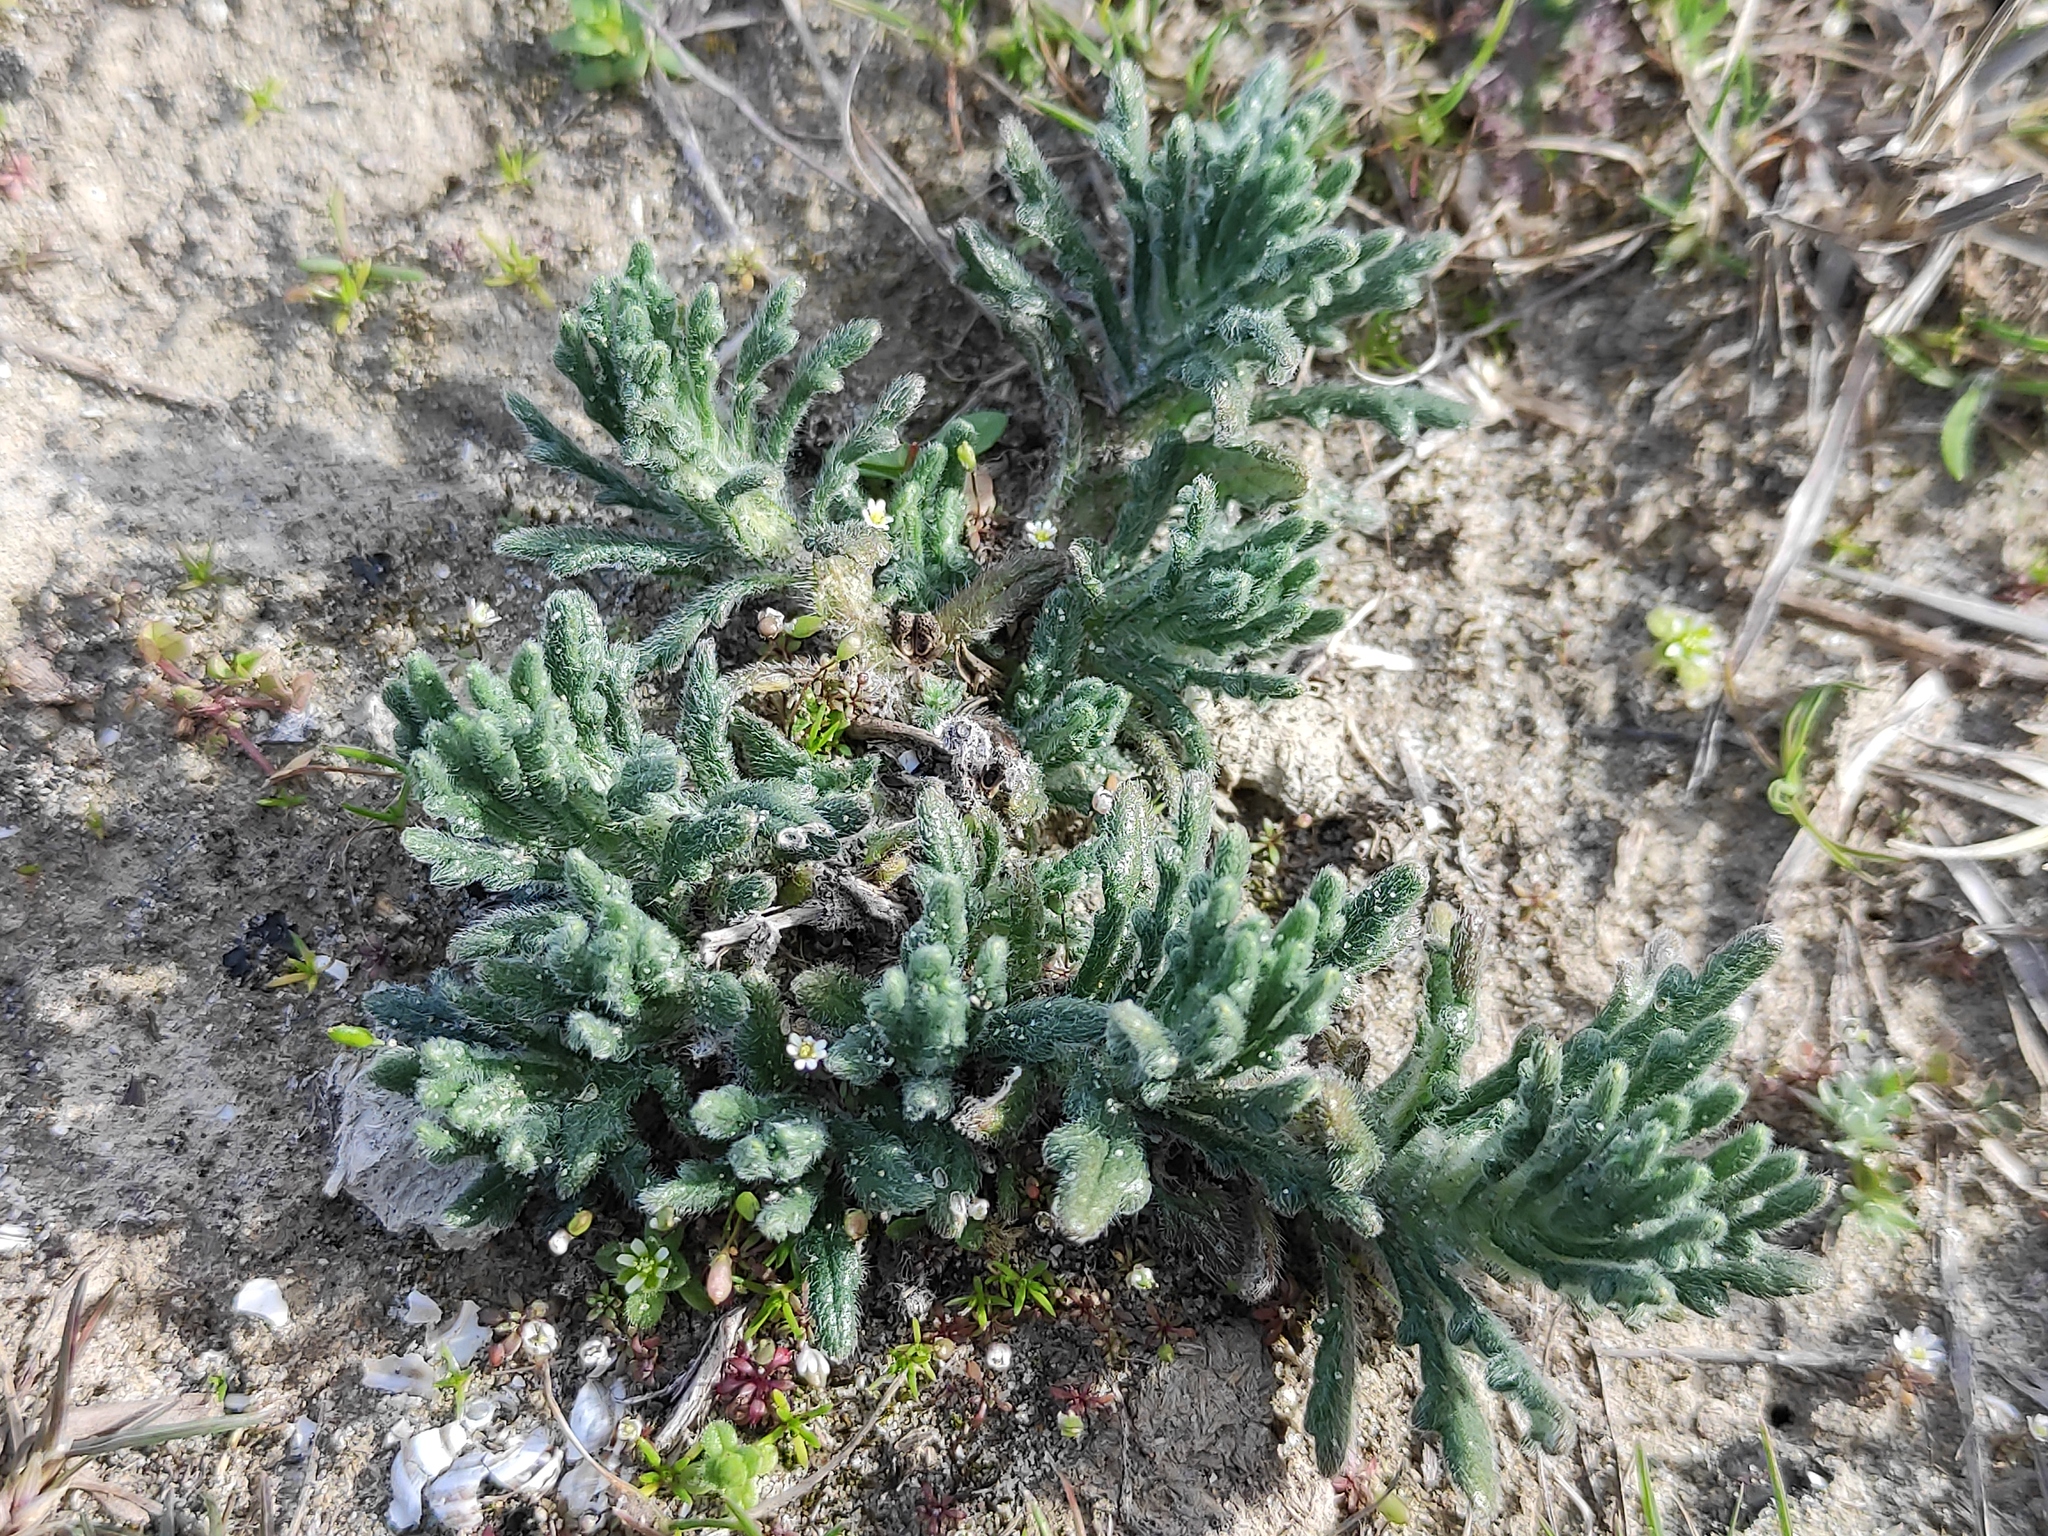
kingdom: Plantae
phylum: Tracheophyta
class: Magnoliopsida
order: Lamiales
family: Lamiaceae
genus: Ajuga
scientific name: Ajuga iva
